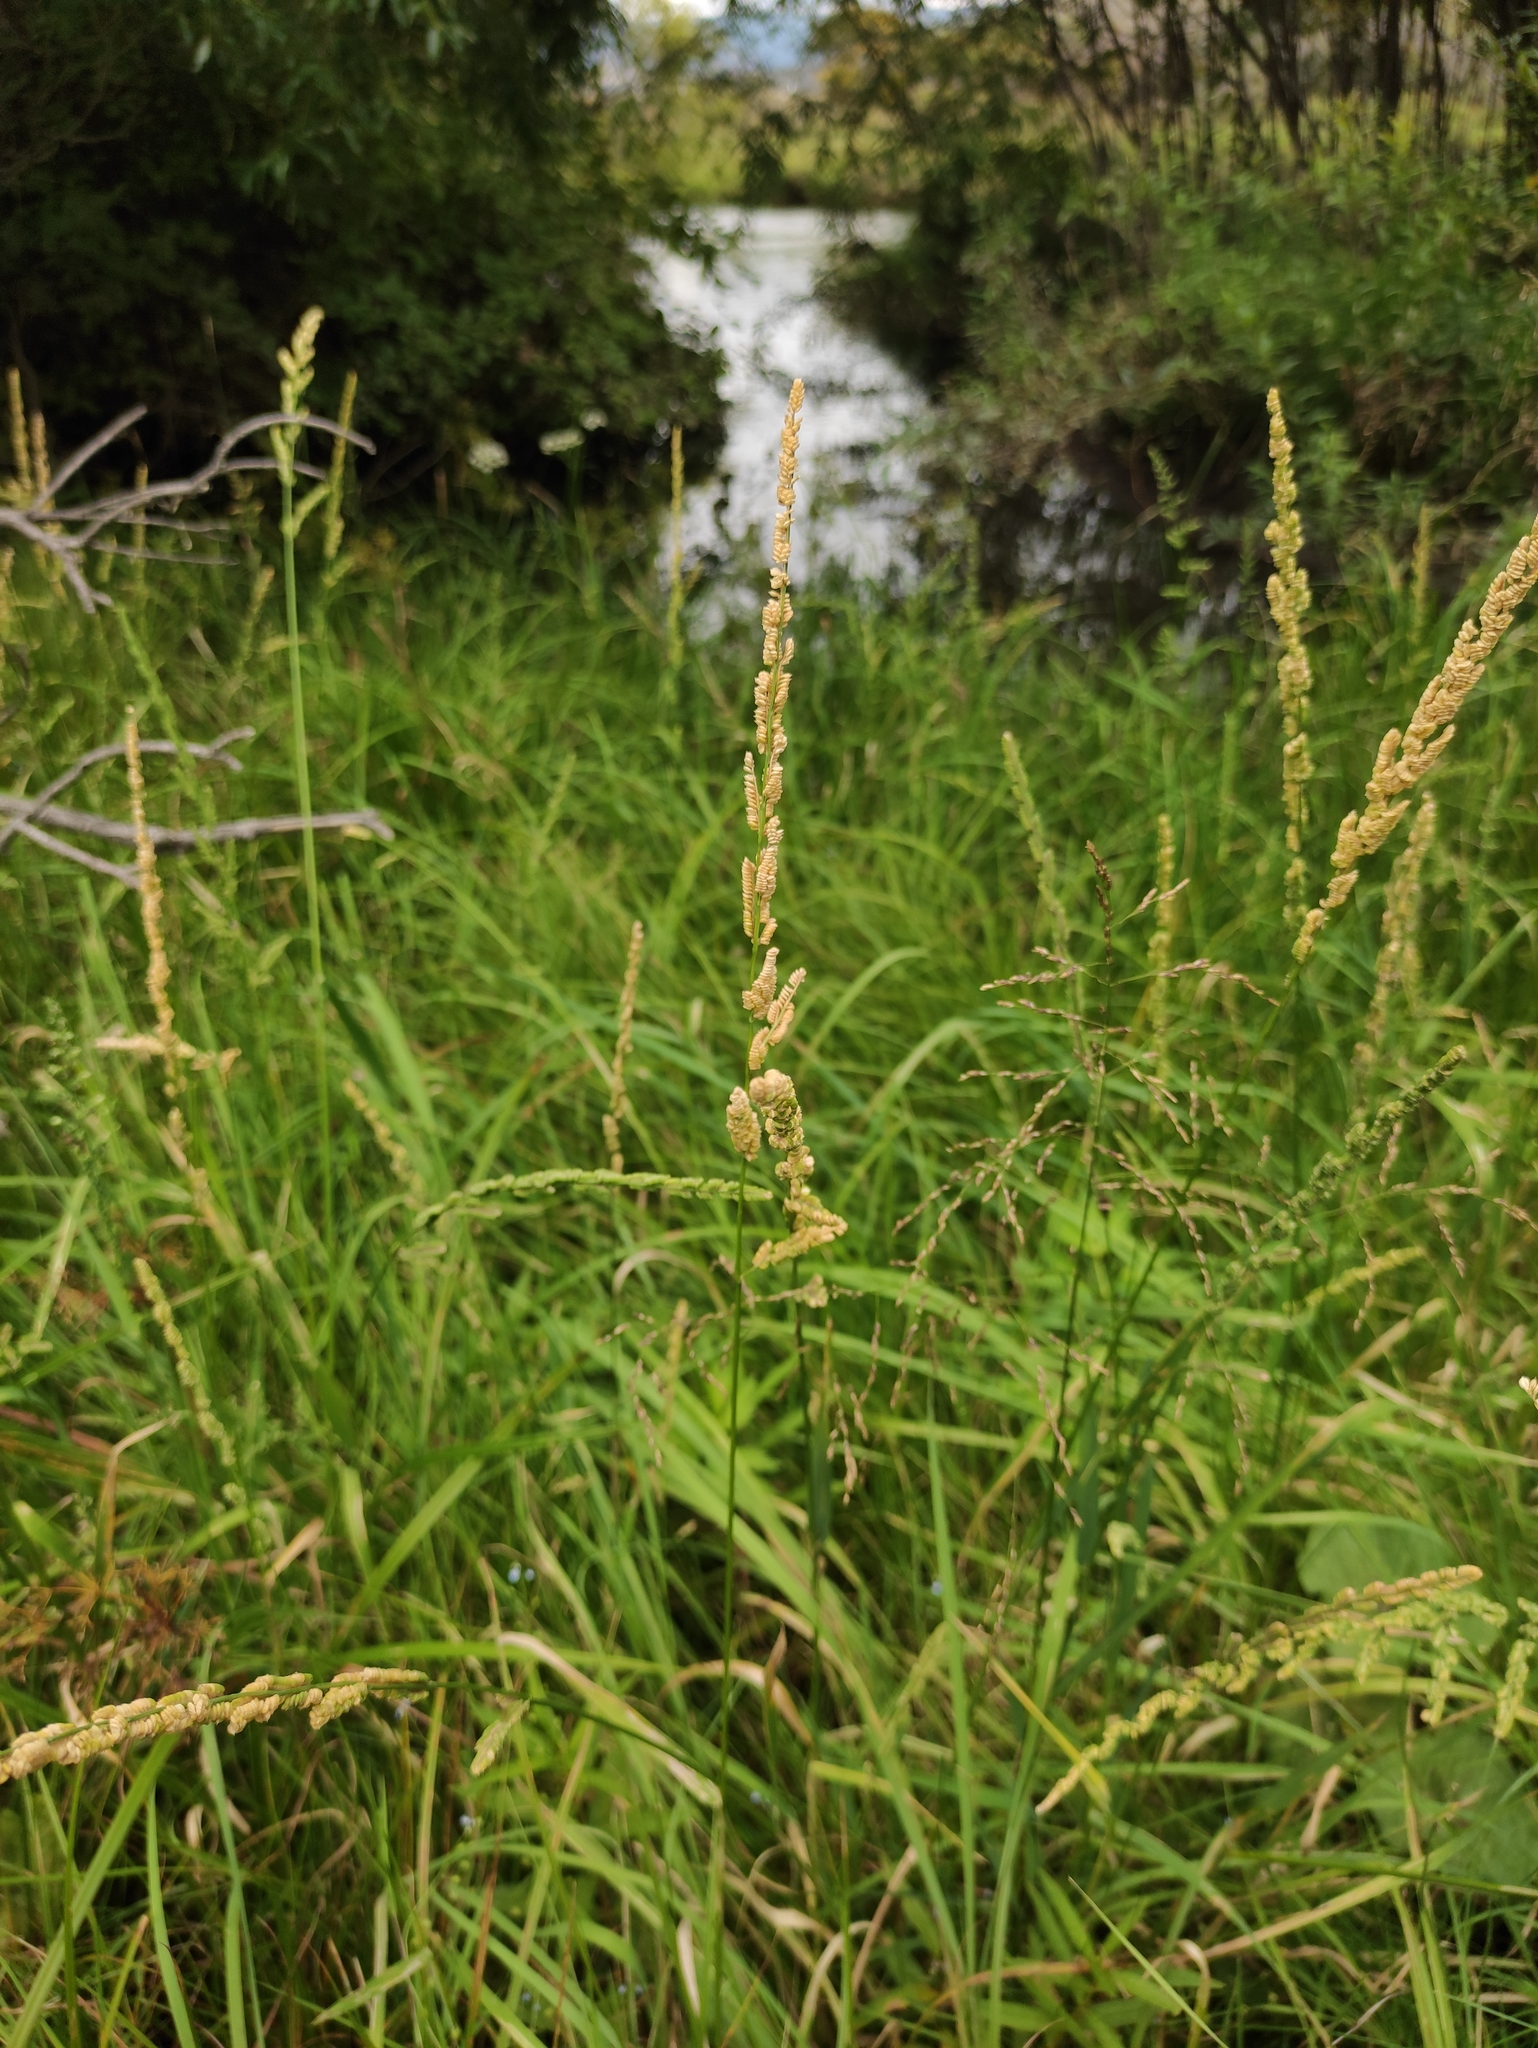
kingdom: Plantae
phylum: Tracheophyta
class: Liliopsida
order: Poales
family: Poaceae
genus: Beckmannia
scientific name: Beckmannia syzigachne
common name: American slough-grass
